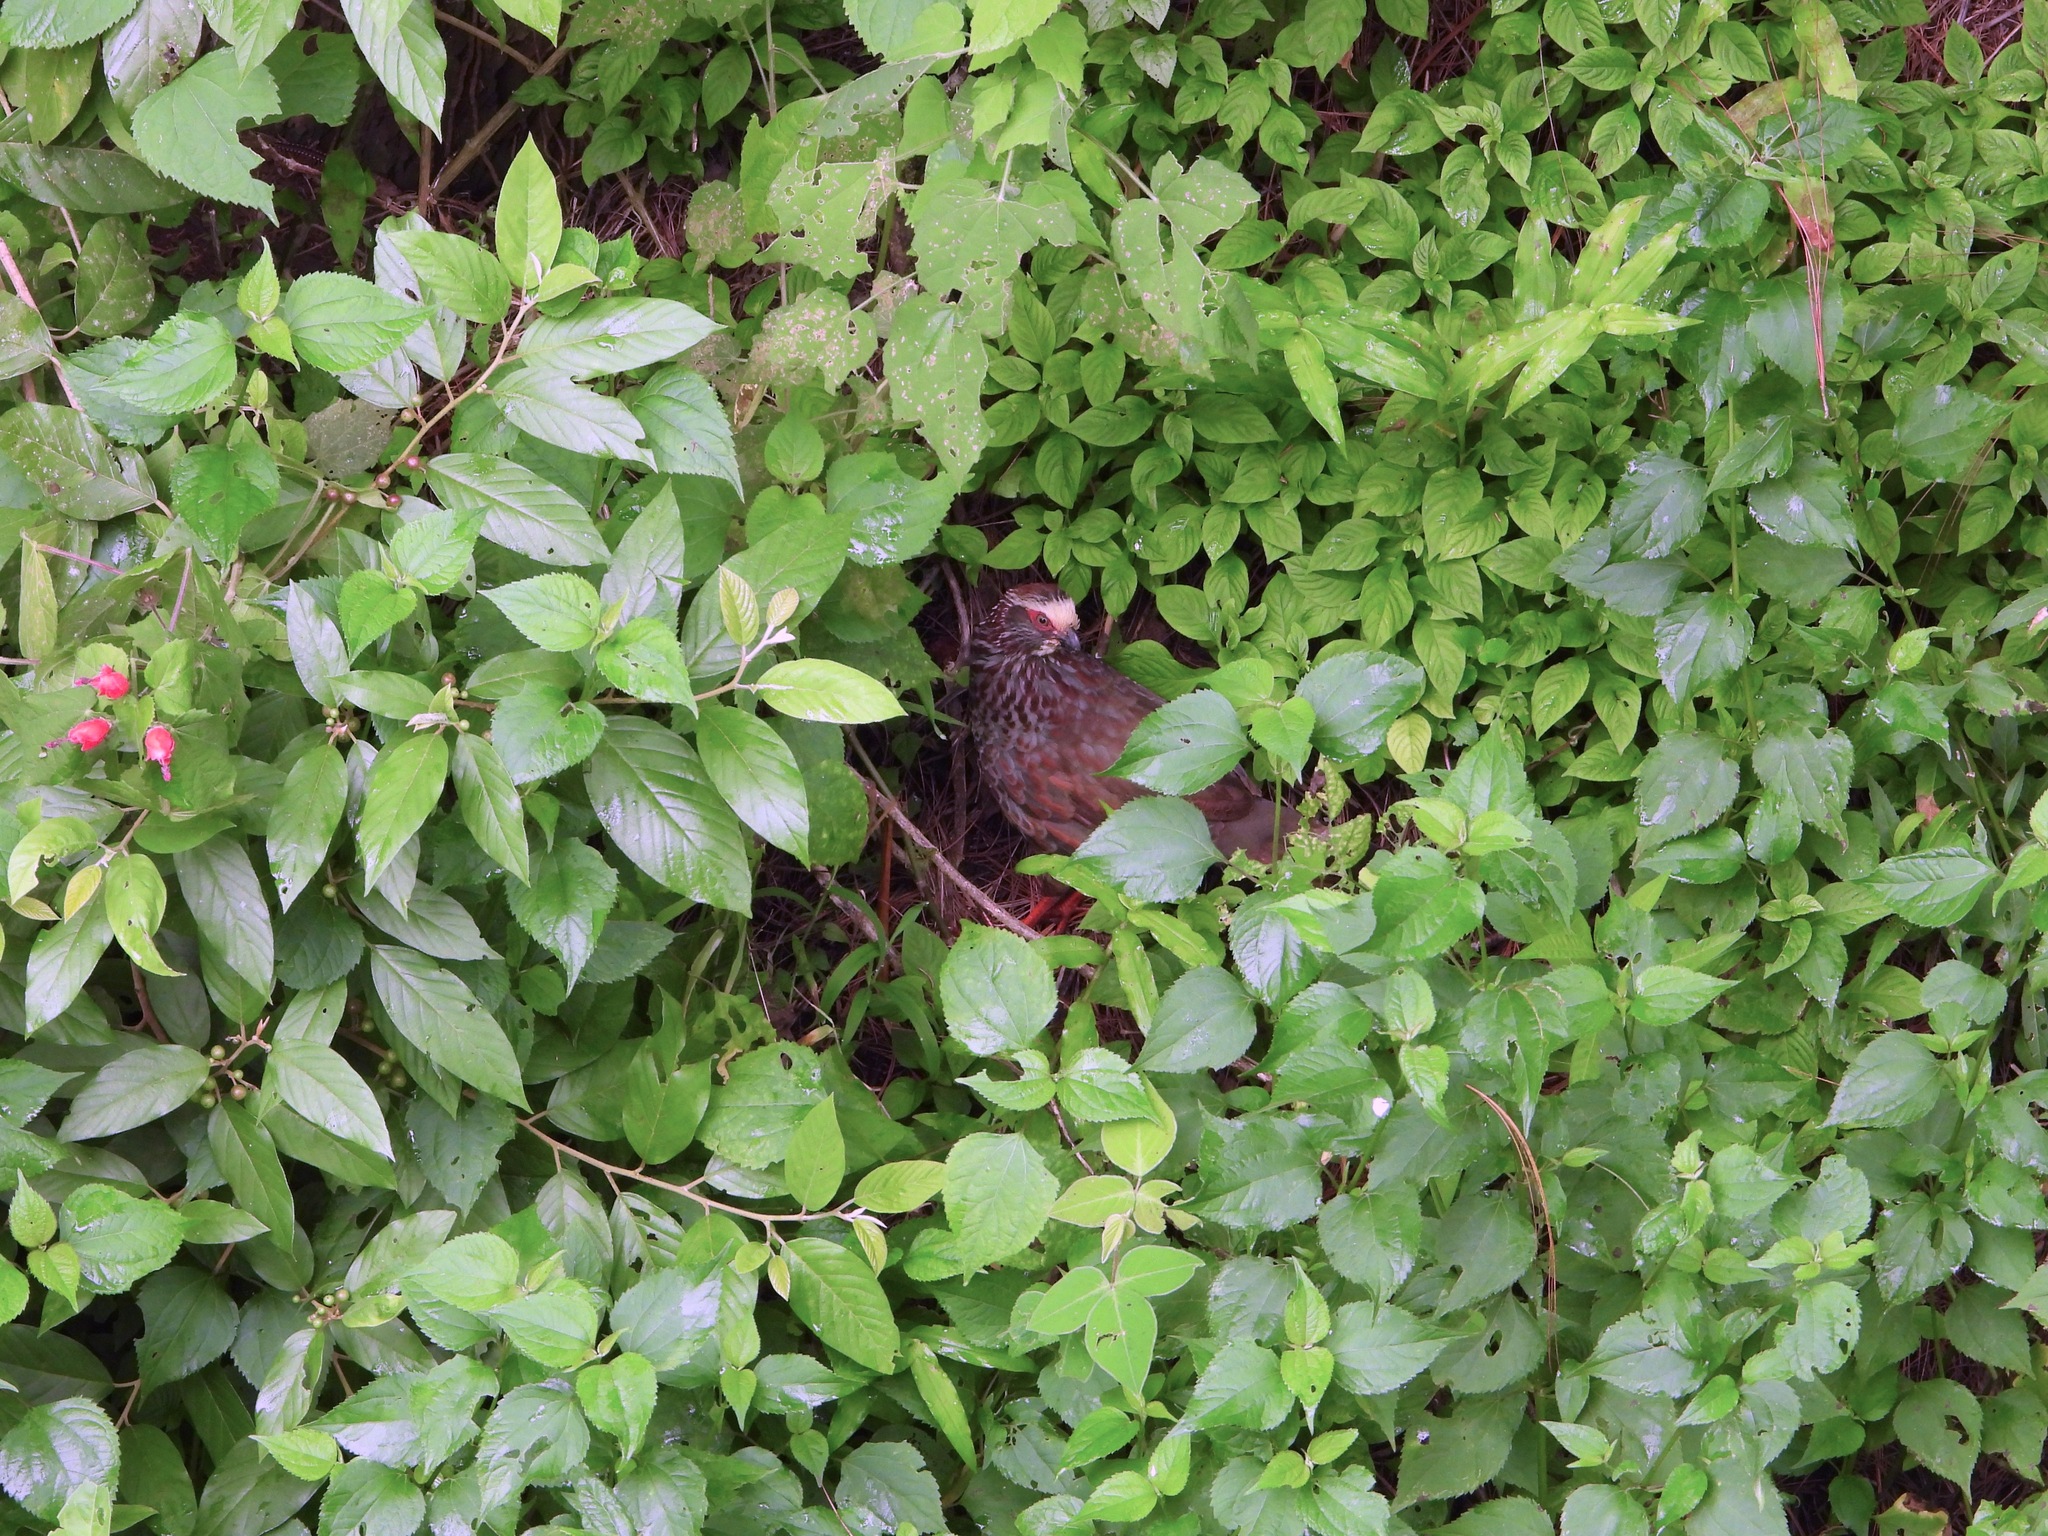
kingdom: Animalia
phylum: Chordata
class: Aves
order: Galliformes
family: Odontophoridae
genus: Dendrortyx
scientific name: Dendrortyx leucophrys
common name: Buffy-crowned wood-partridge
